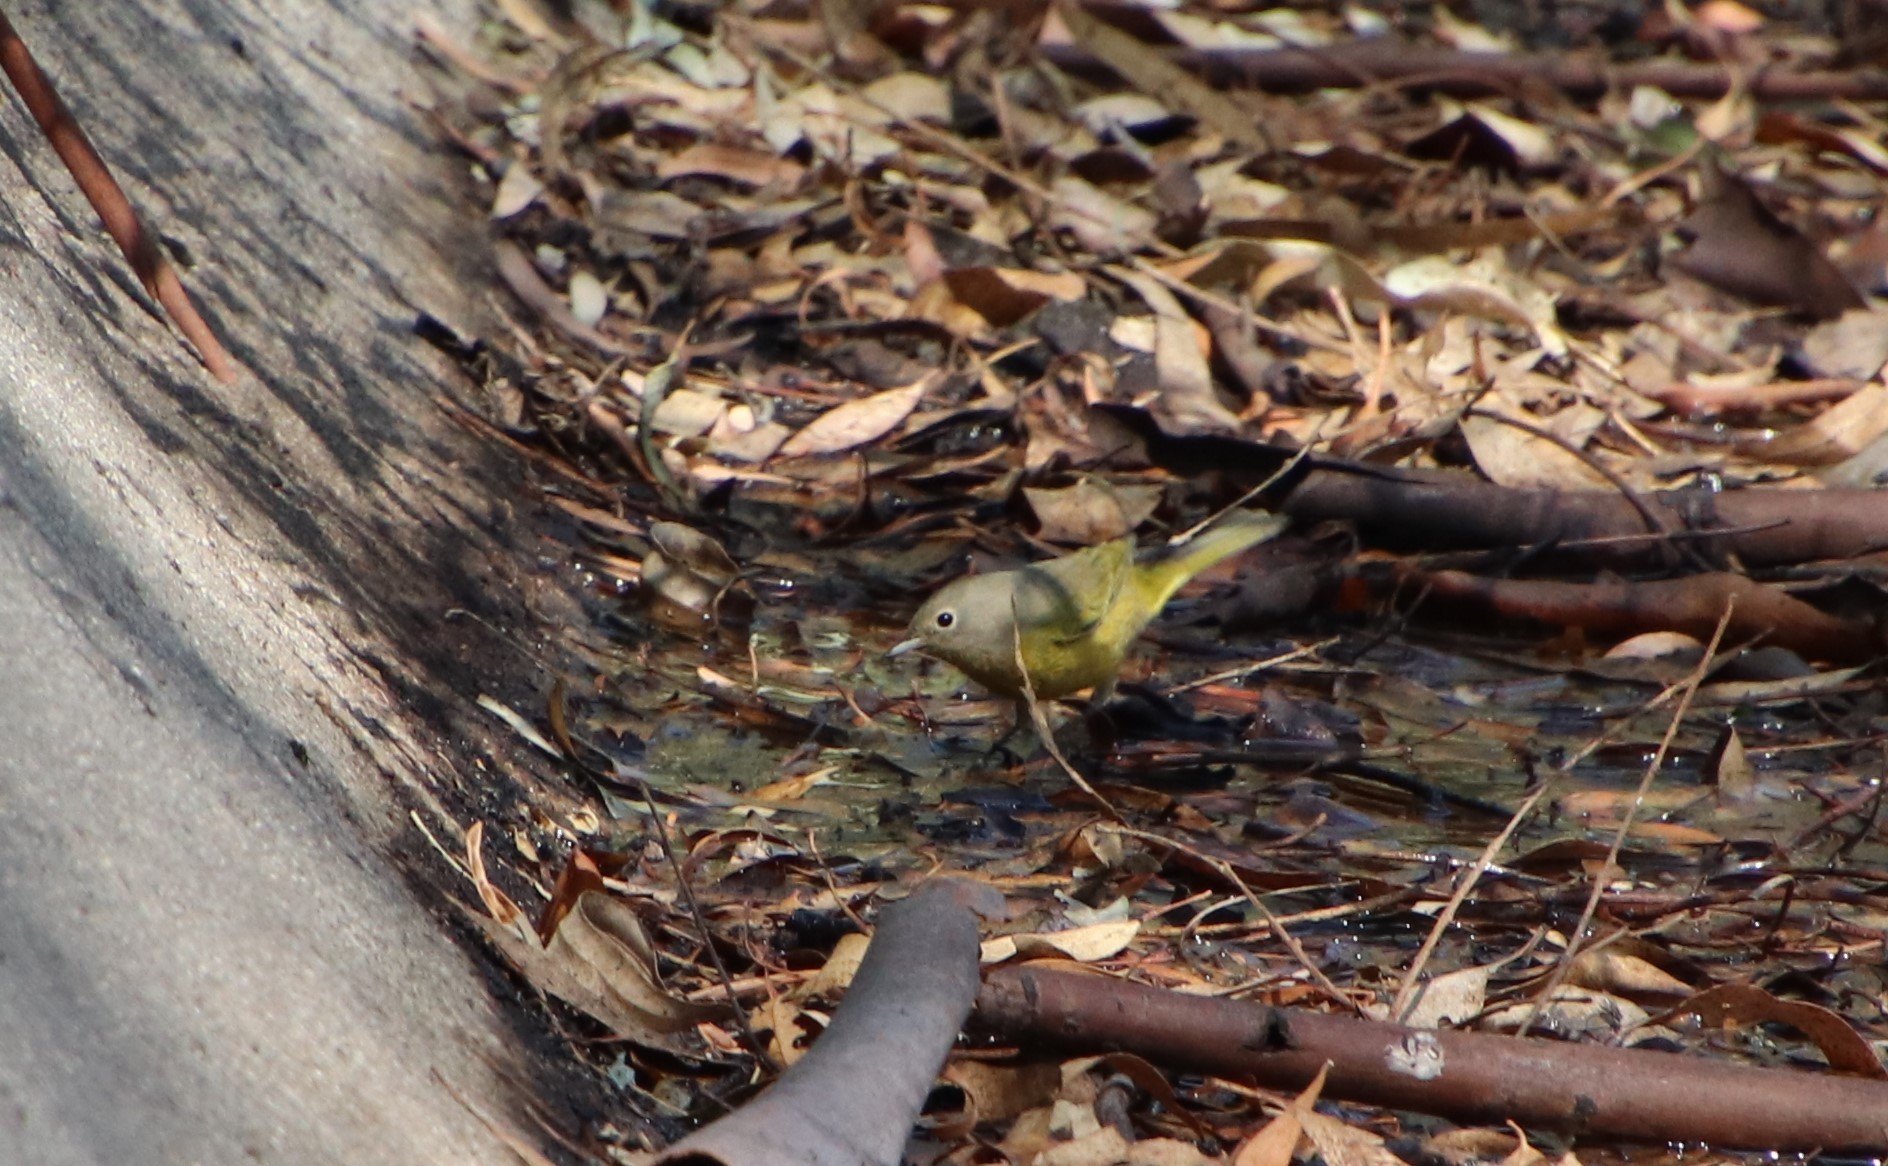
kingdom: Animalia
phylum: Chordata
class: Aves
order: Passeriformes
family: Parulidae
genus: Leiothlypis
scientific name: Leiothlypis ruficapilla
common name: Nashville warbler
